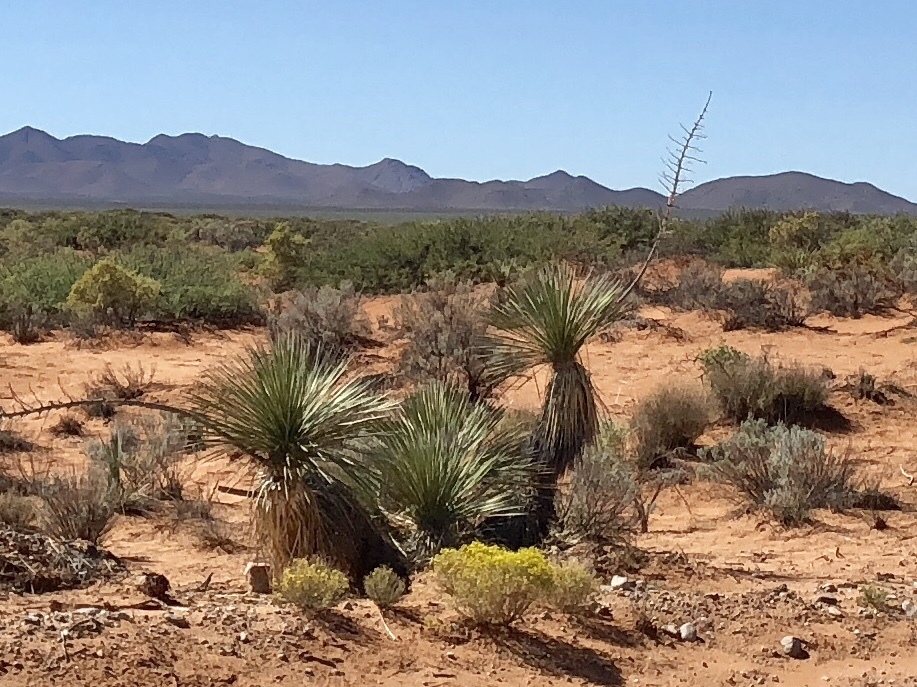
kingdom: Plantae
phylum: Tracheophyta
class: Liliopsida
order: Asparagales
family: Asparagaceae
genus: Yucca
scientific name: Yucca elata
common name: Palmella
